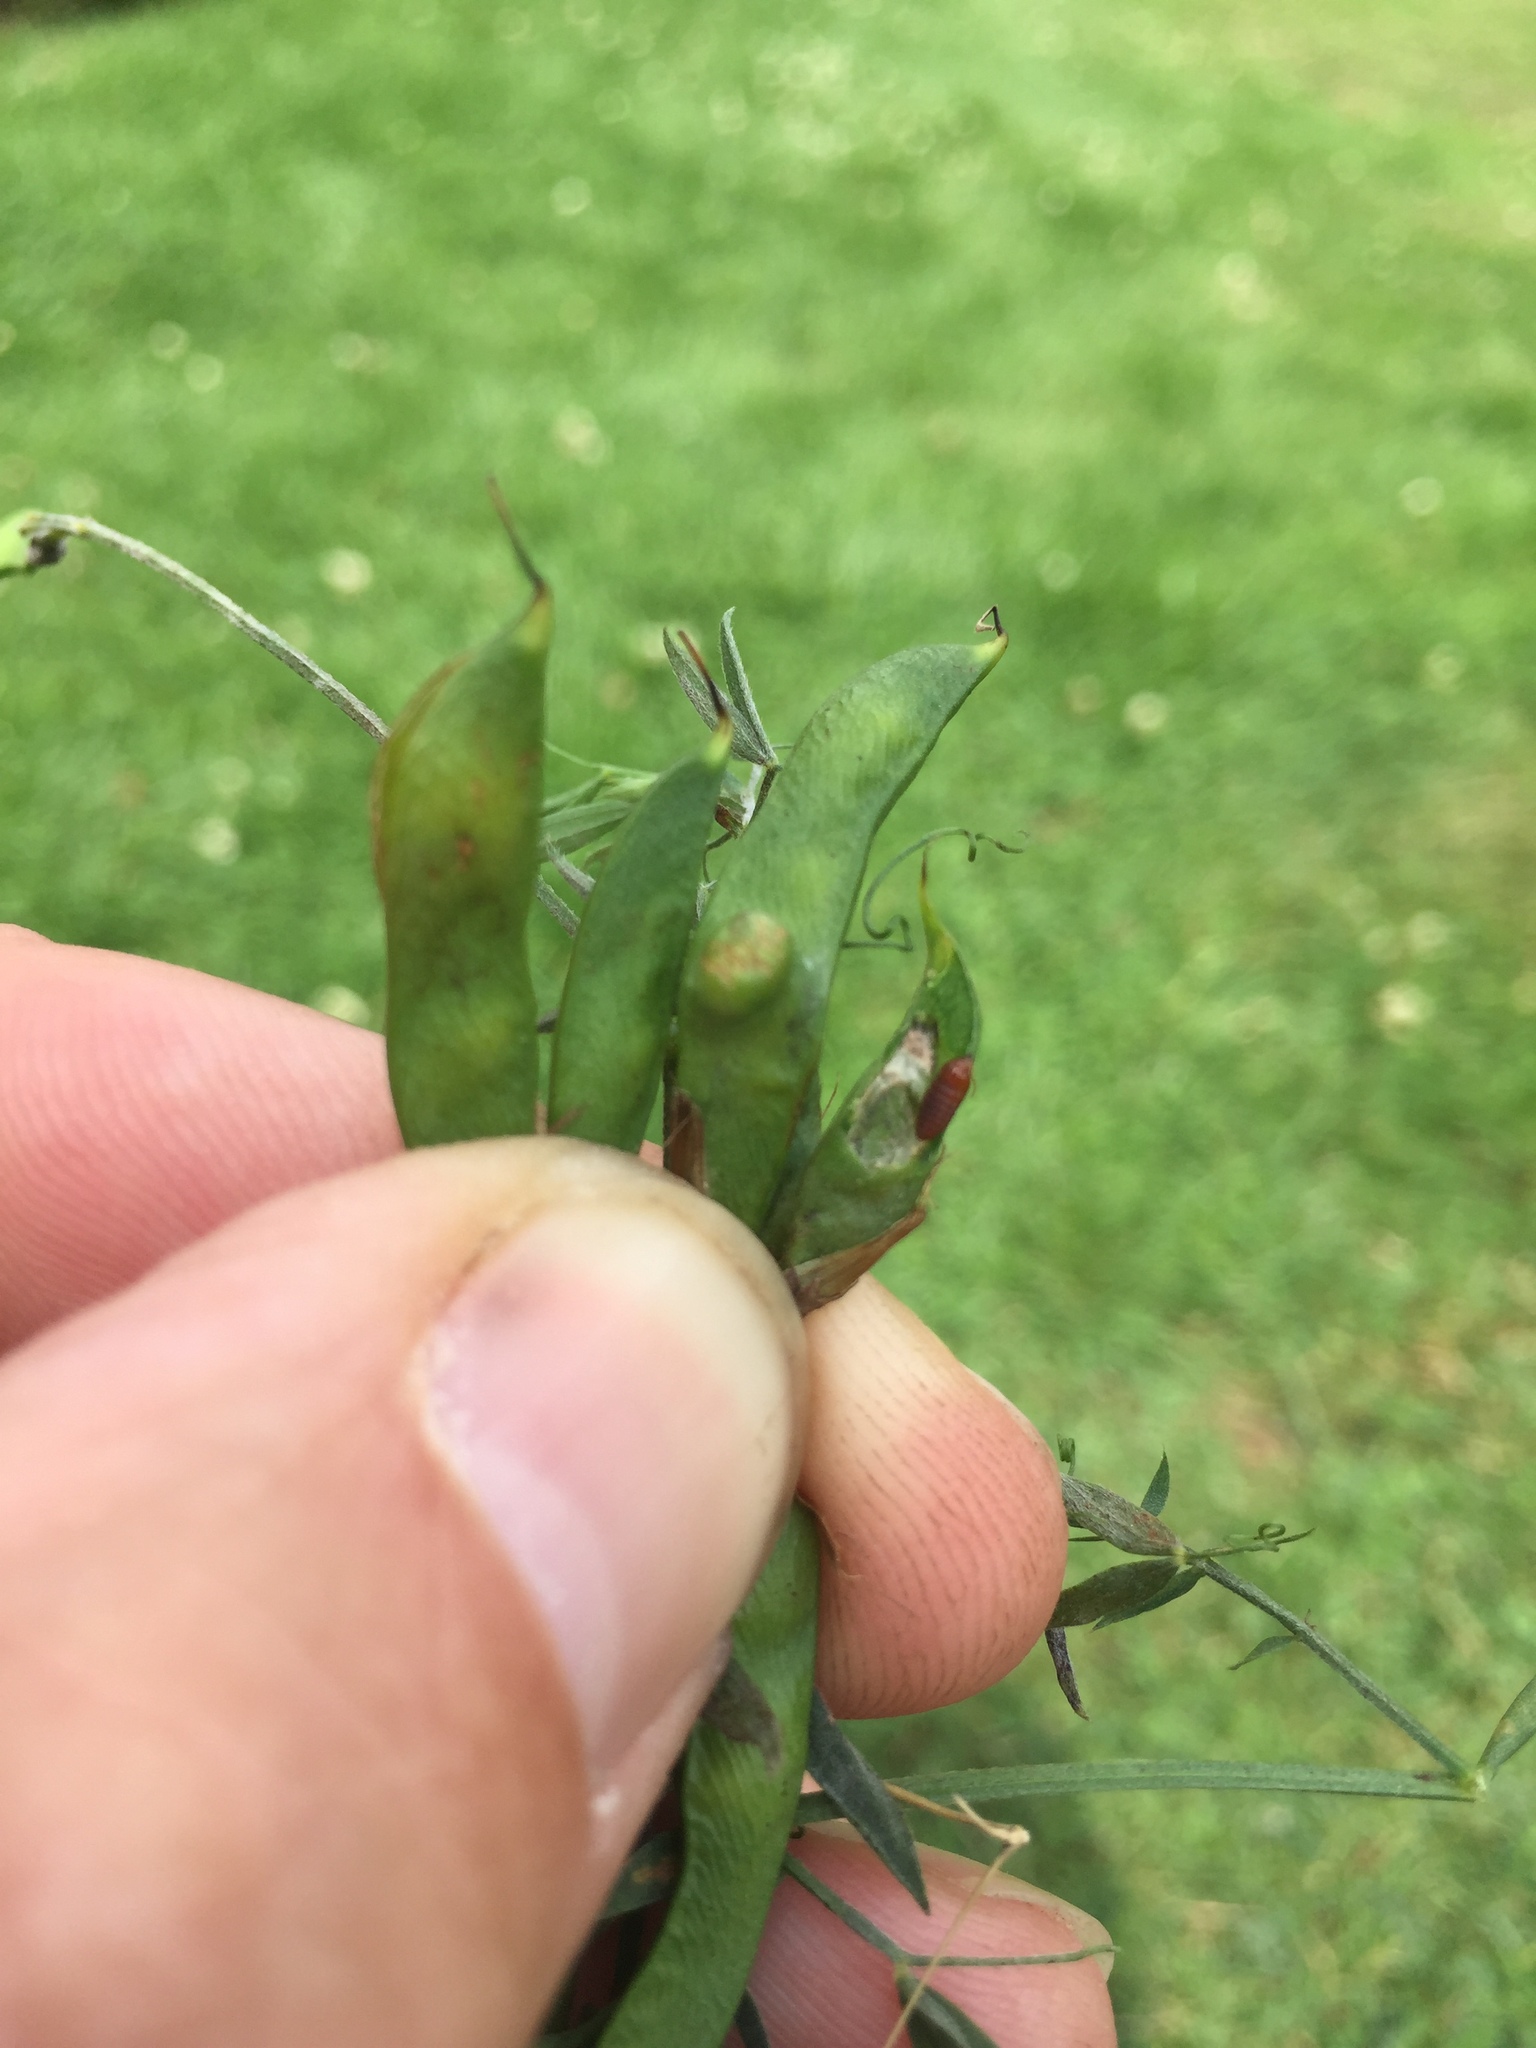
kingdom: Animalia
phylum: Arthropoda
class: Insecta
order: Diptera
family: Cecidomyiidae
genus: Asphondylia
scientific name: Asphondylia lathyri
